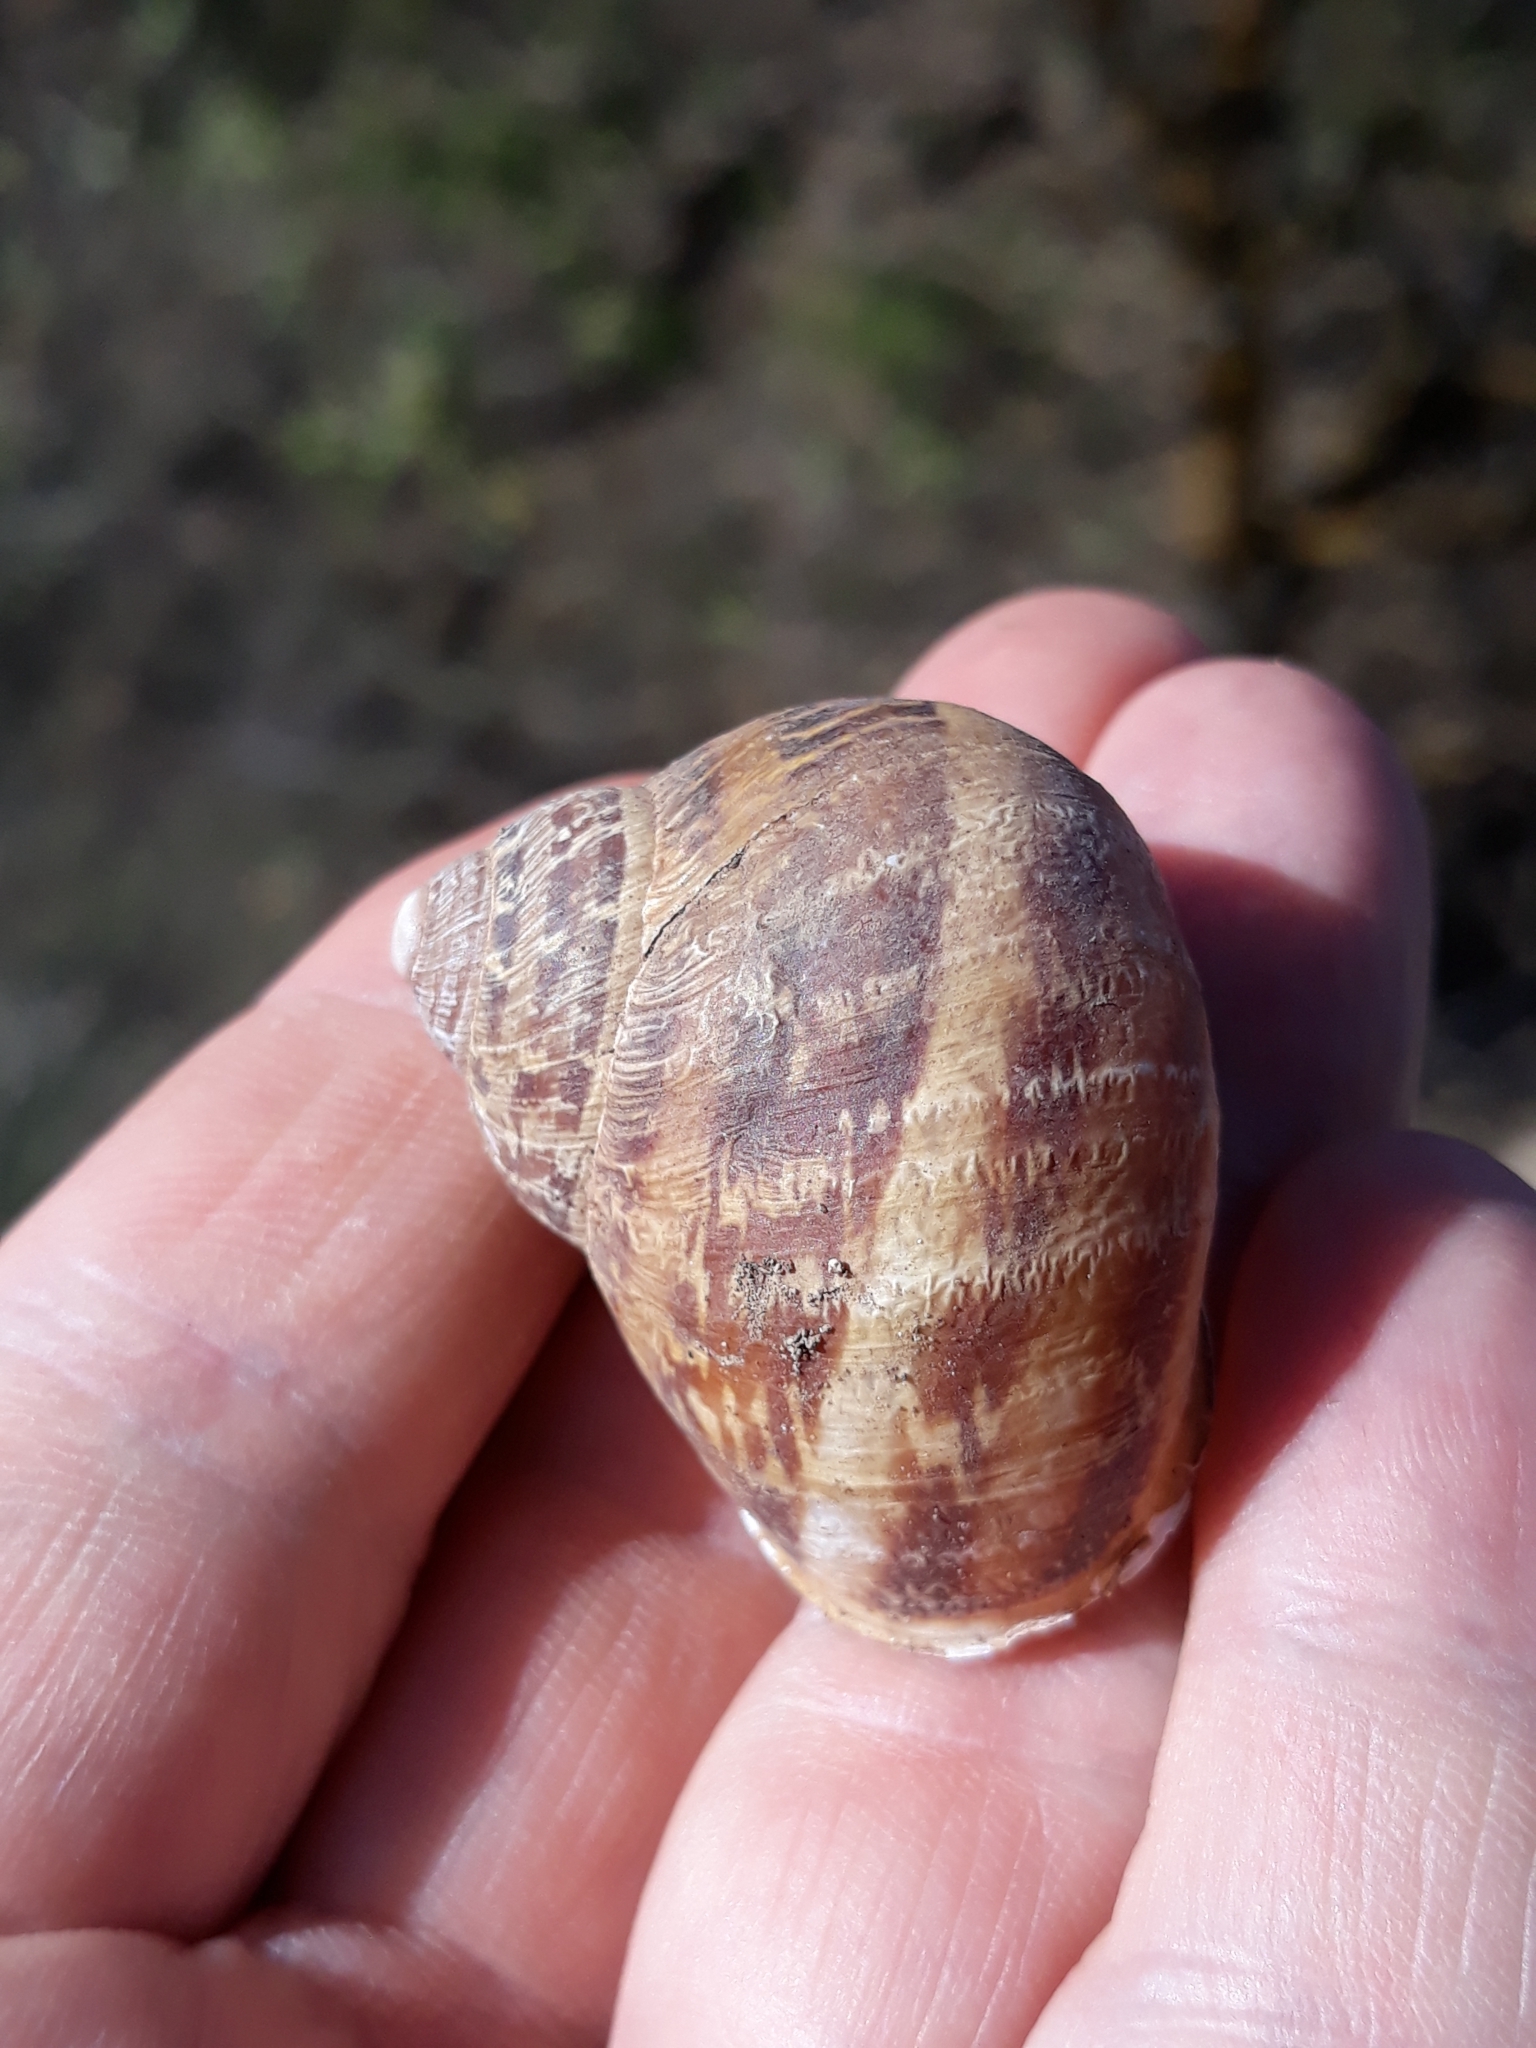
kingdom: Animalia
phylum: Mollusca
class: Gastropoda
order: Stylommatophora
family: Helicidae
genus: Cornu
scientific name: Cornu aspersum
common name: Brown garden snail
